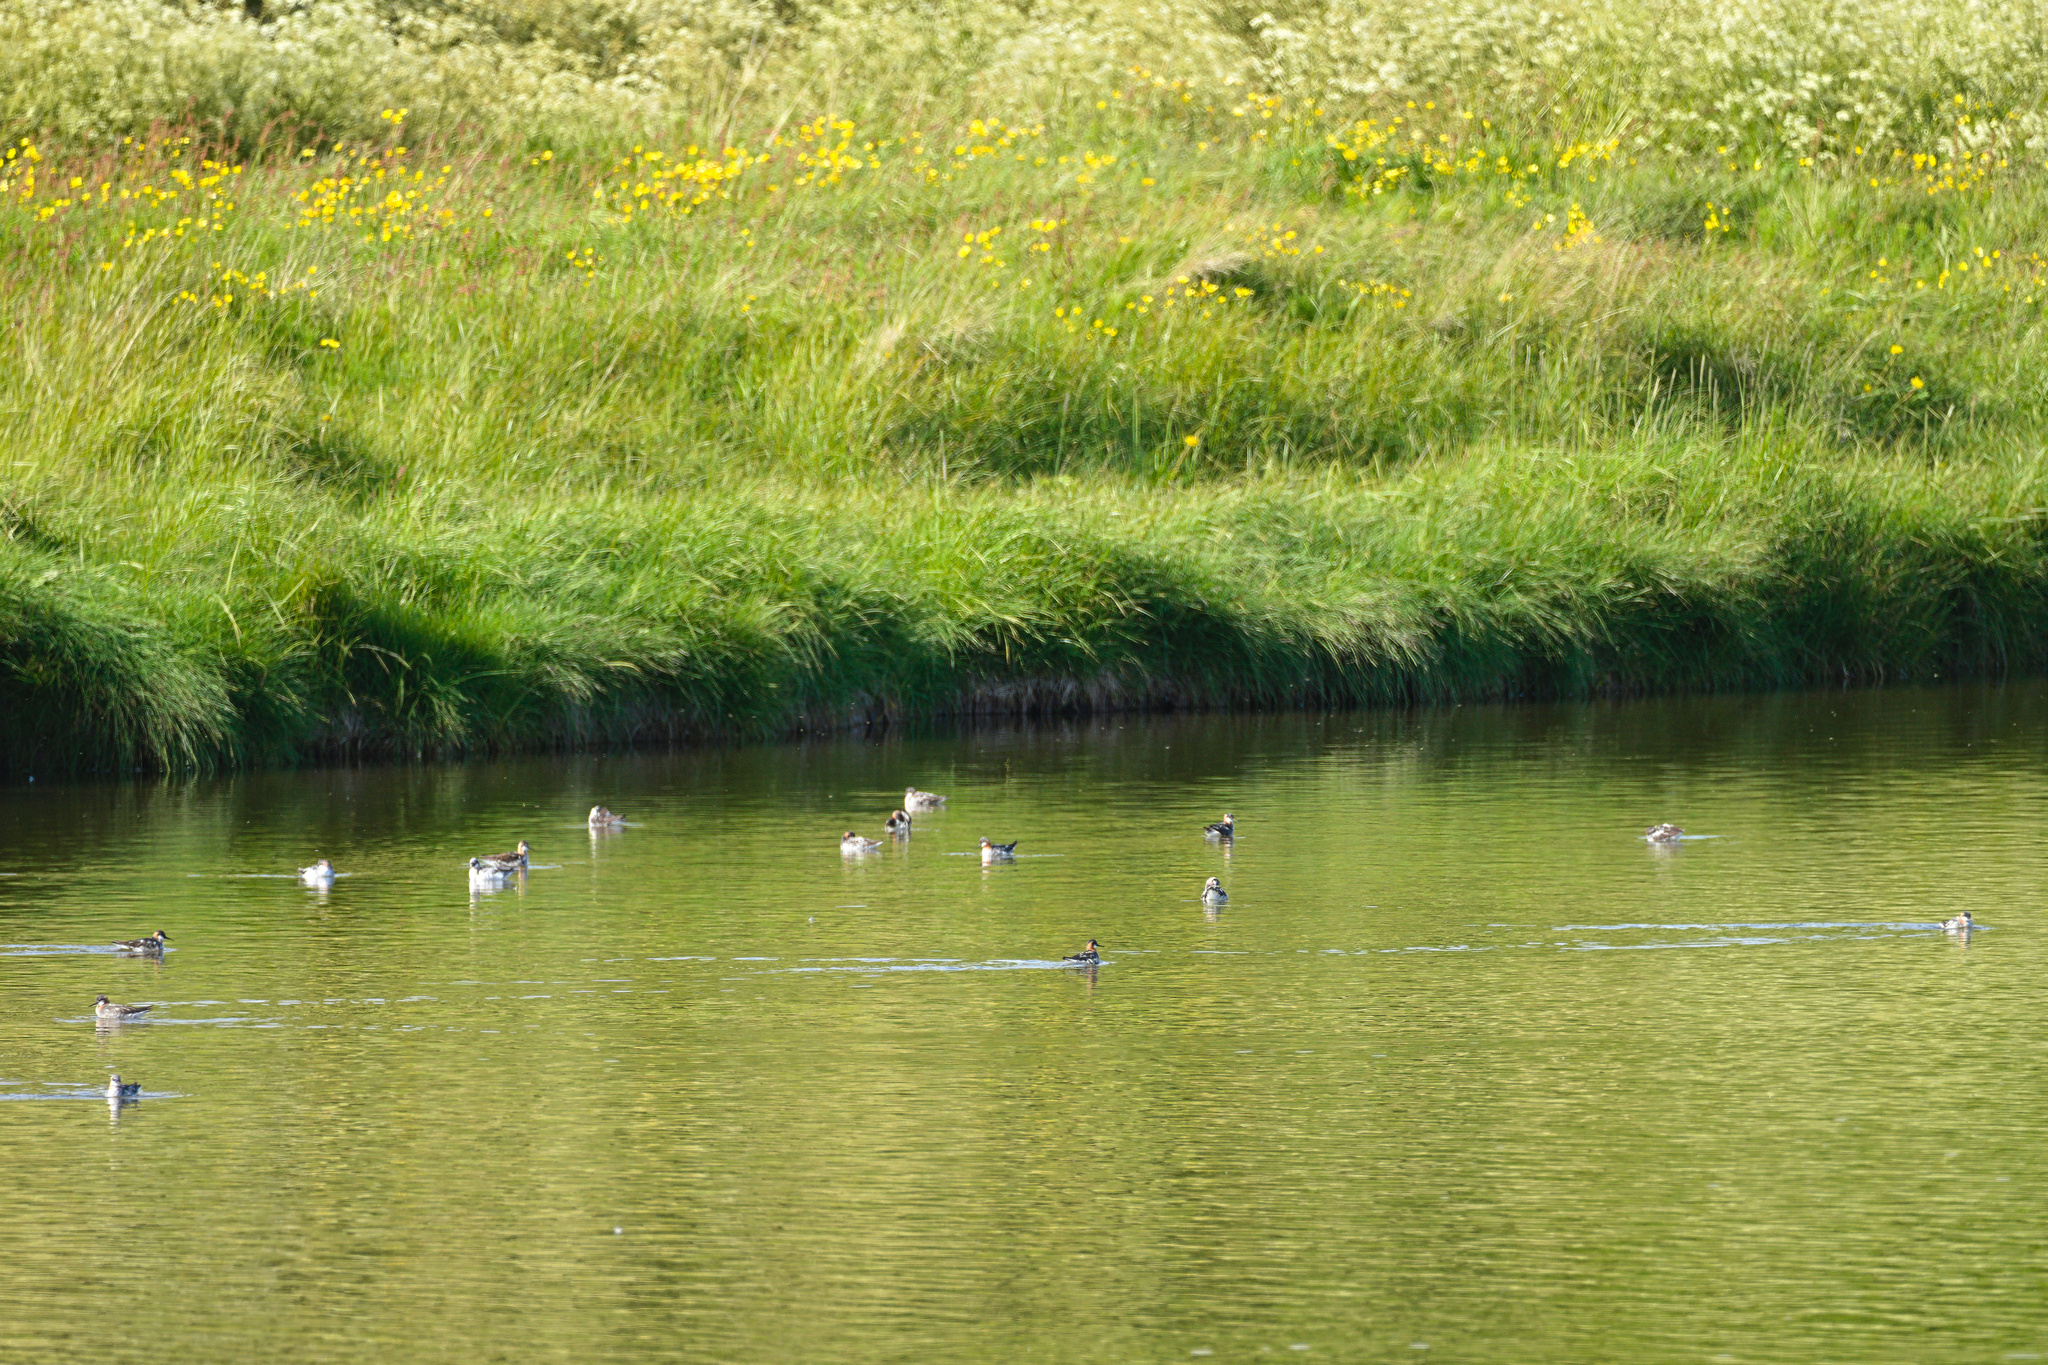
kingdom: Animalia
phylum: Chordata
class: Aves
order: Charadriiformes
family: Scolopacidae
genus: Phalaropus
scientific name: Phalaropus lobatus
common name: Red-necked phalarope
